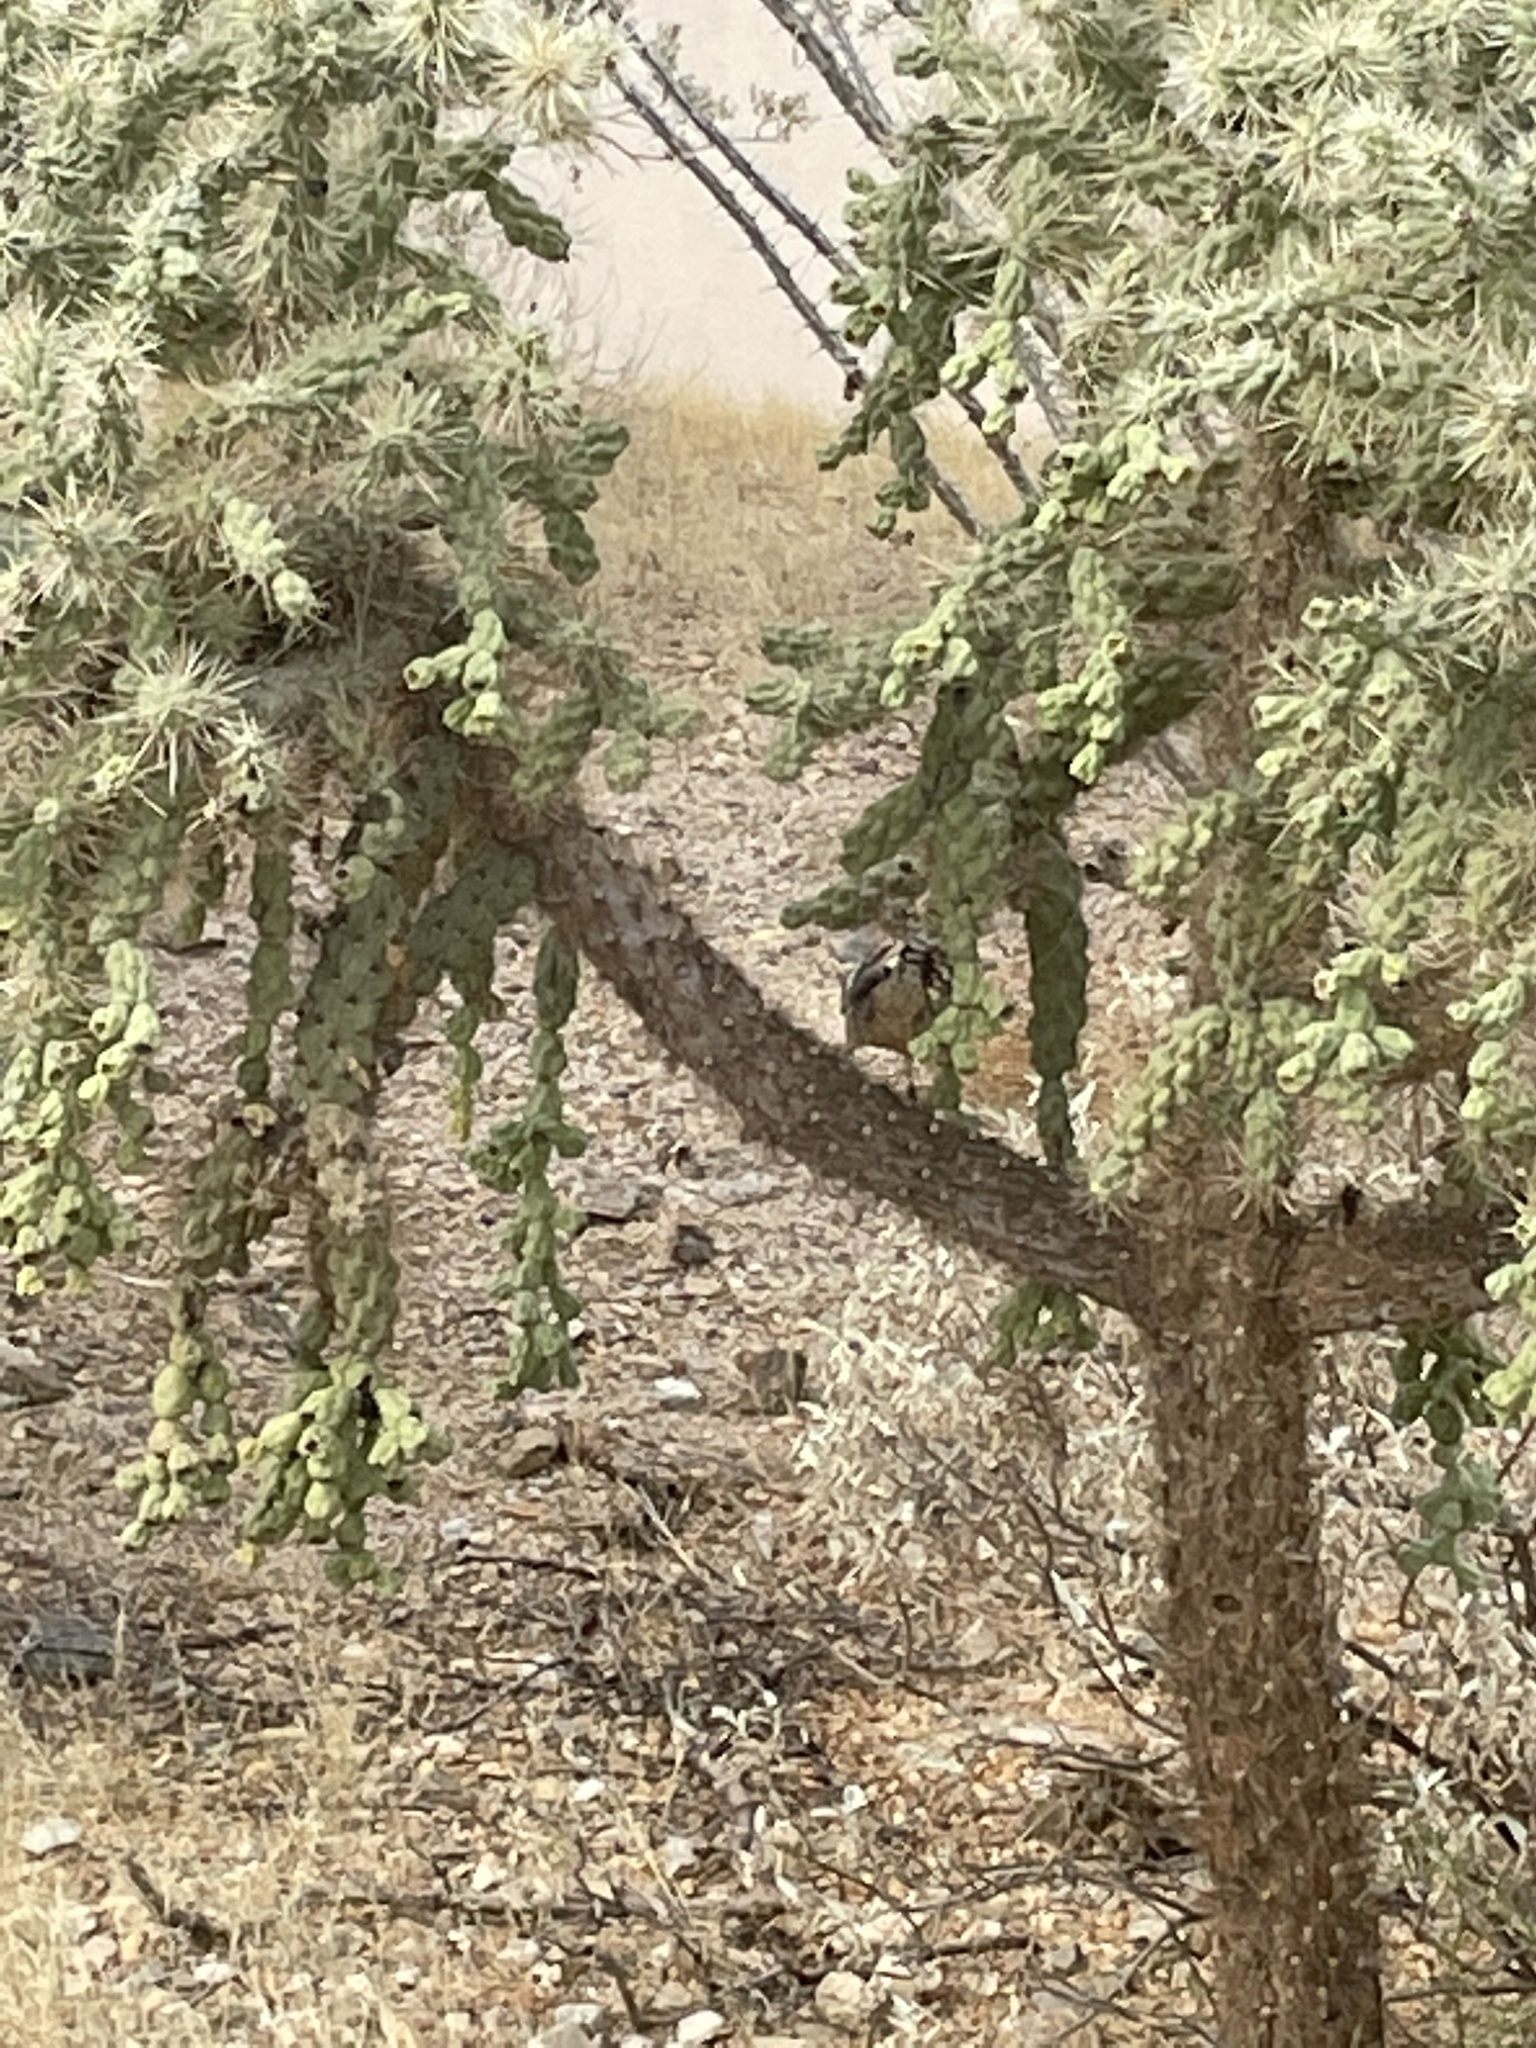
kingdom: Animalia
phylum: Chordata
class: Aves
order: Passeriformes
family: Troglodytidae
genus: Campylorhynchus
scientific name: Campylorhynchus brunneicapillus
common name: Cactus wren
